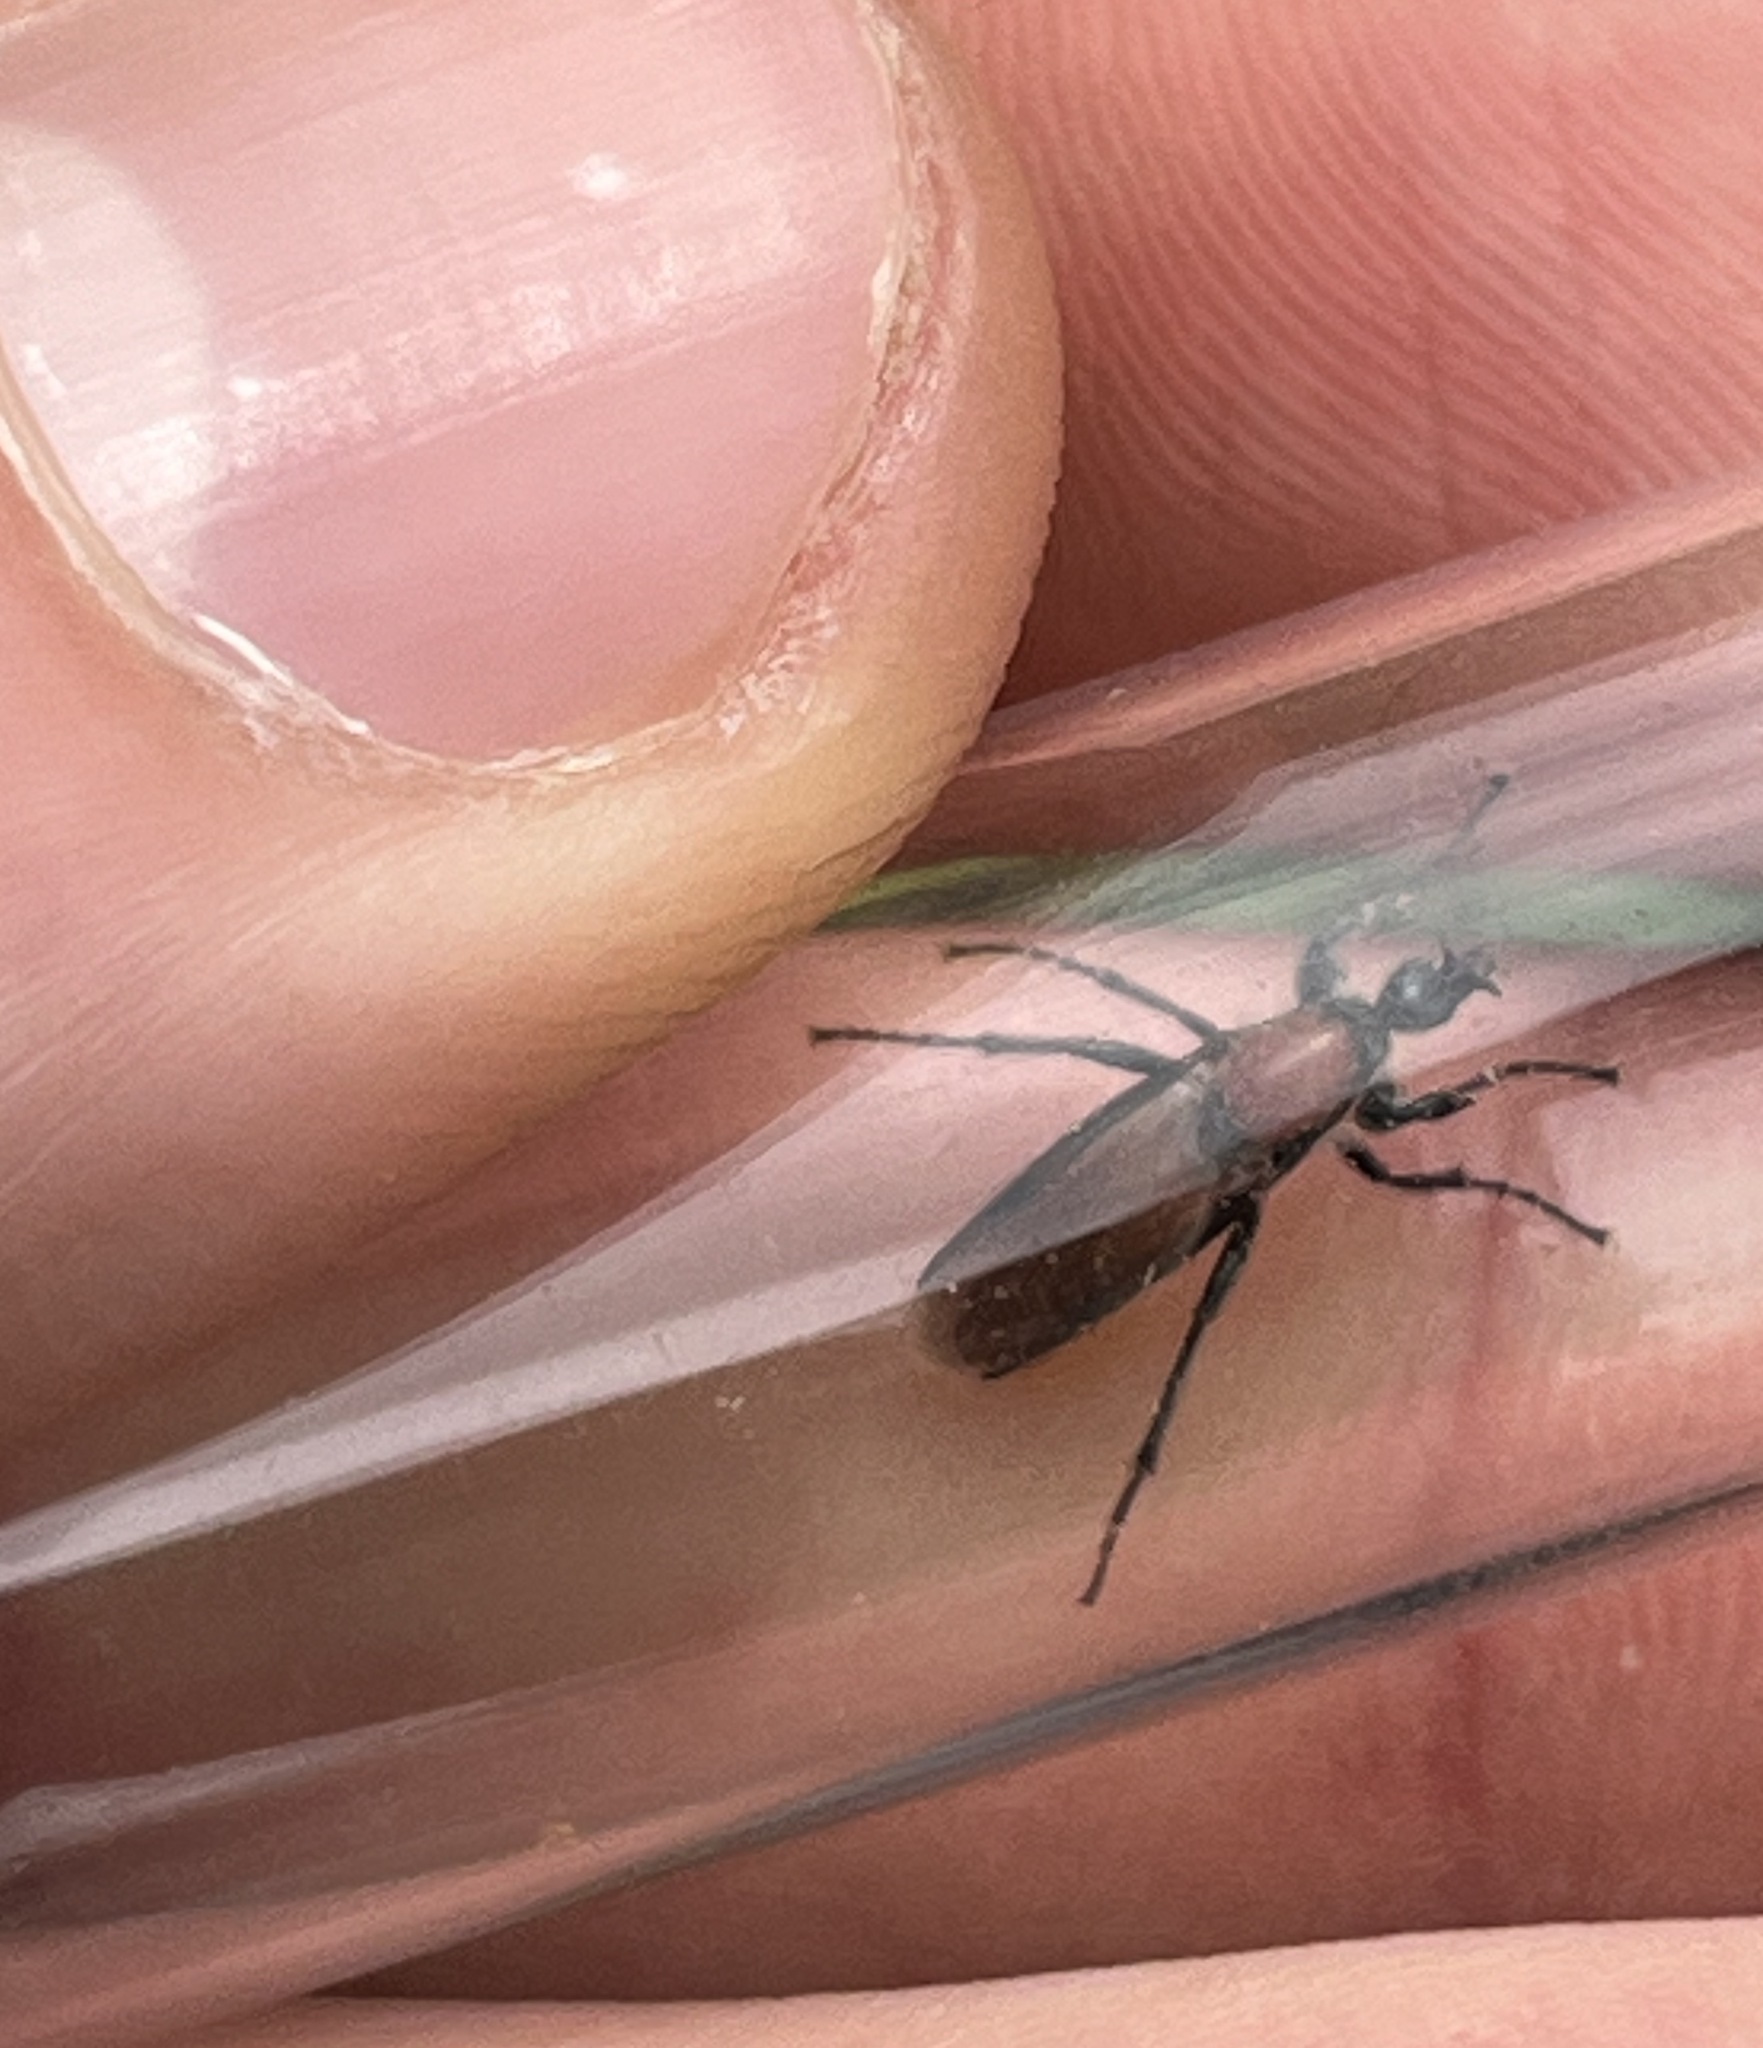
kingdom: Animalia
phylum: Arthropoda
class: Insecta
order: Diptera
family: Bibionidae
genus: Bibio
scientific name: Bibio hortulanus
